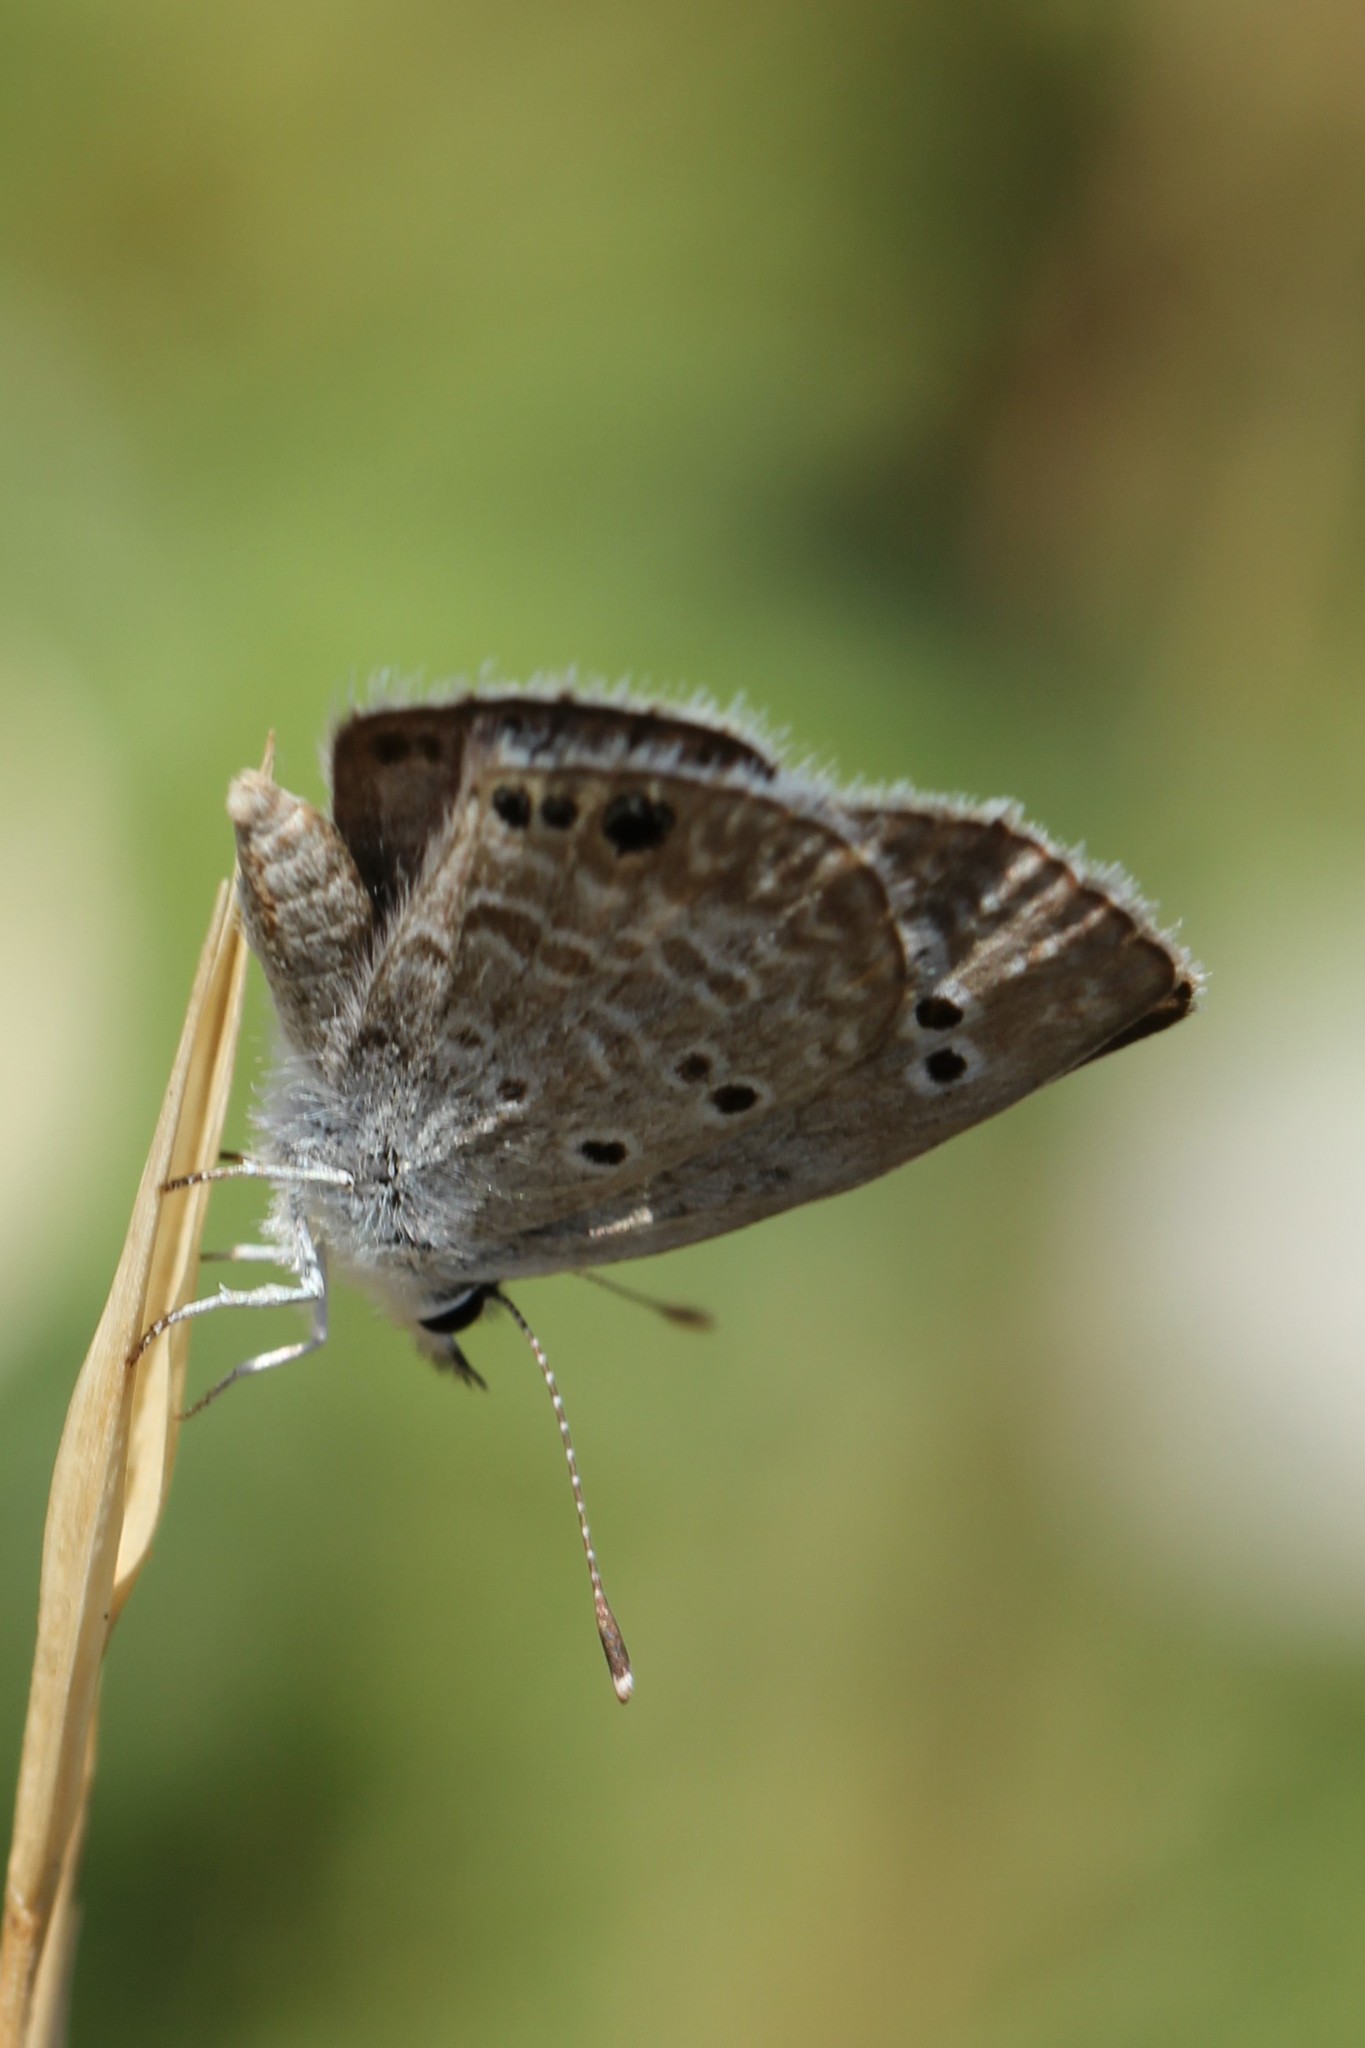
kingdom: Animalia
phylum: Arthropoda
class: Insecta
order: Lepidoptera
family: Lycaenidae
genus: Echinargus
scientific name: Echinargus isola
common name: Reakirt's blue
